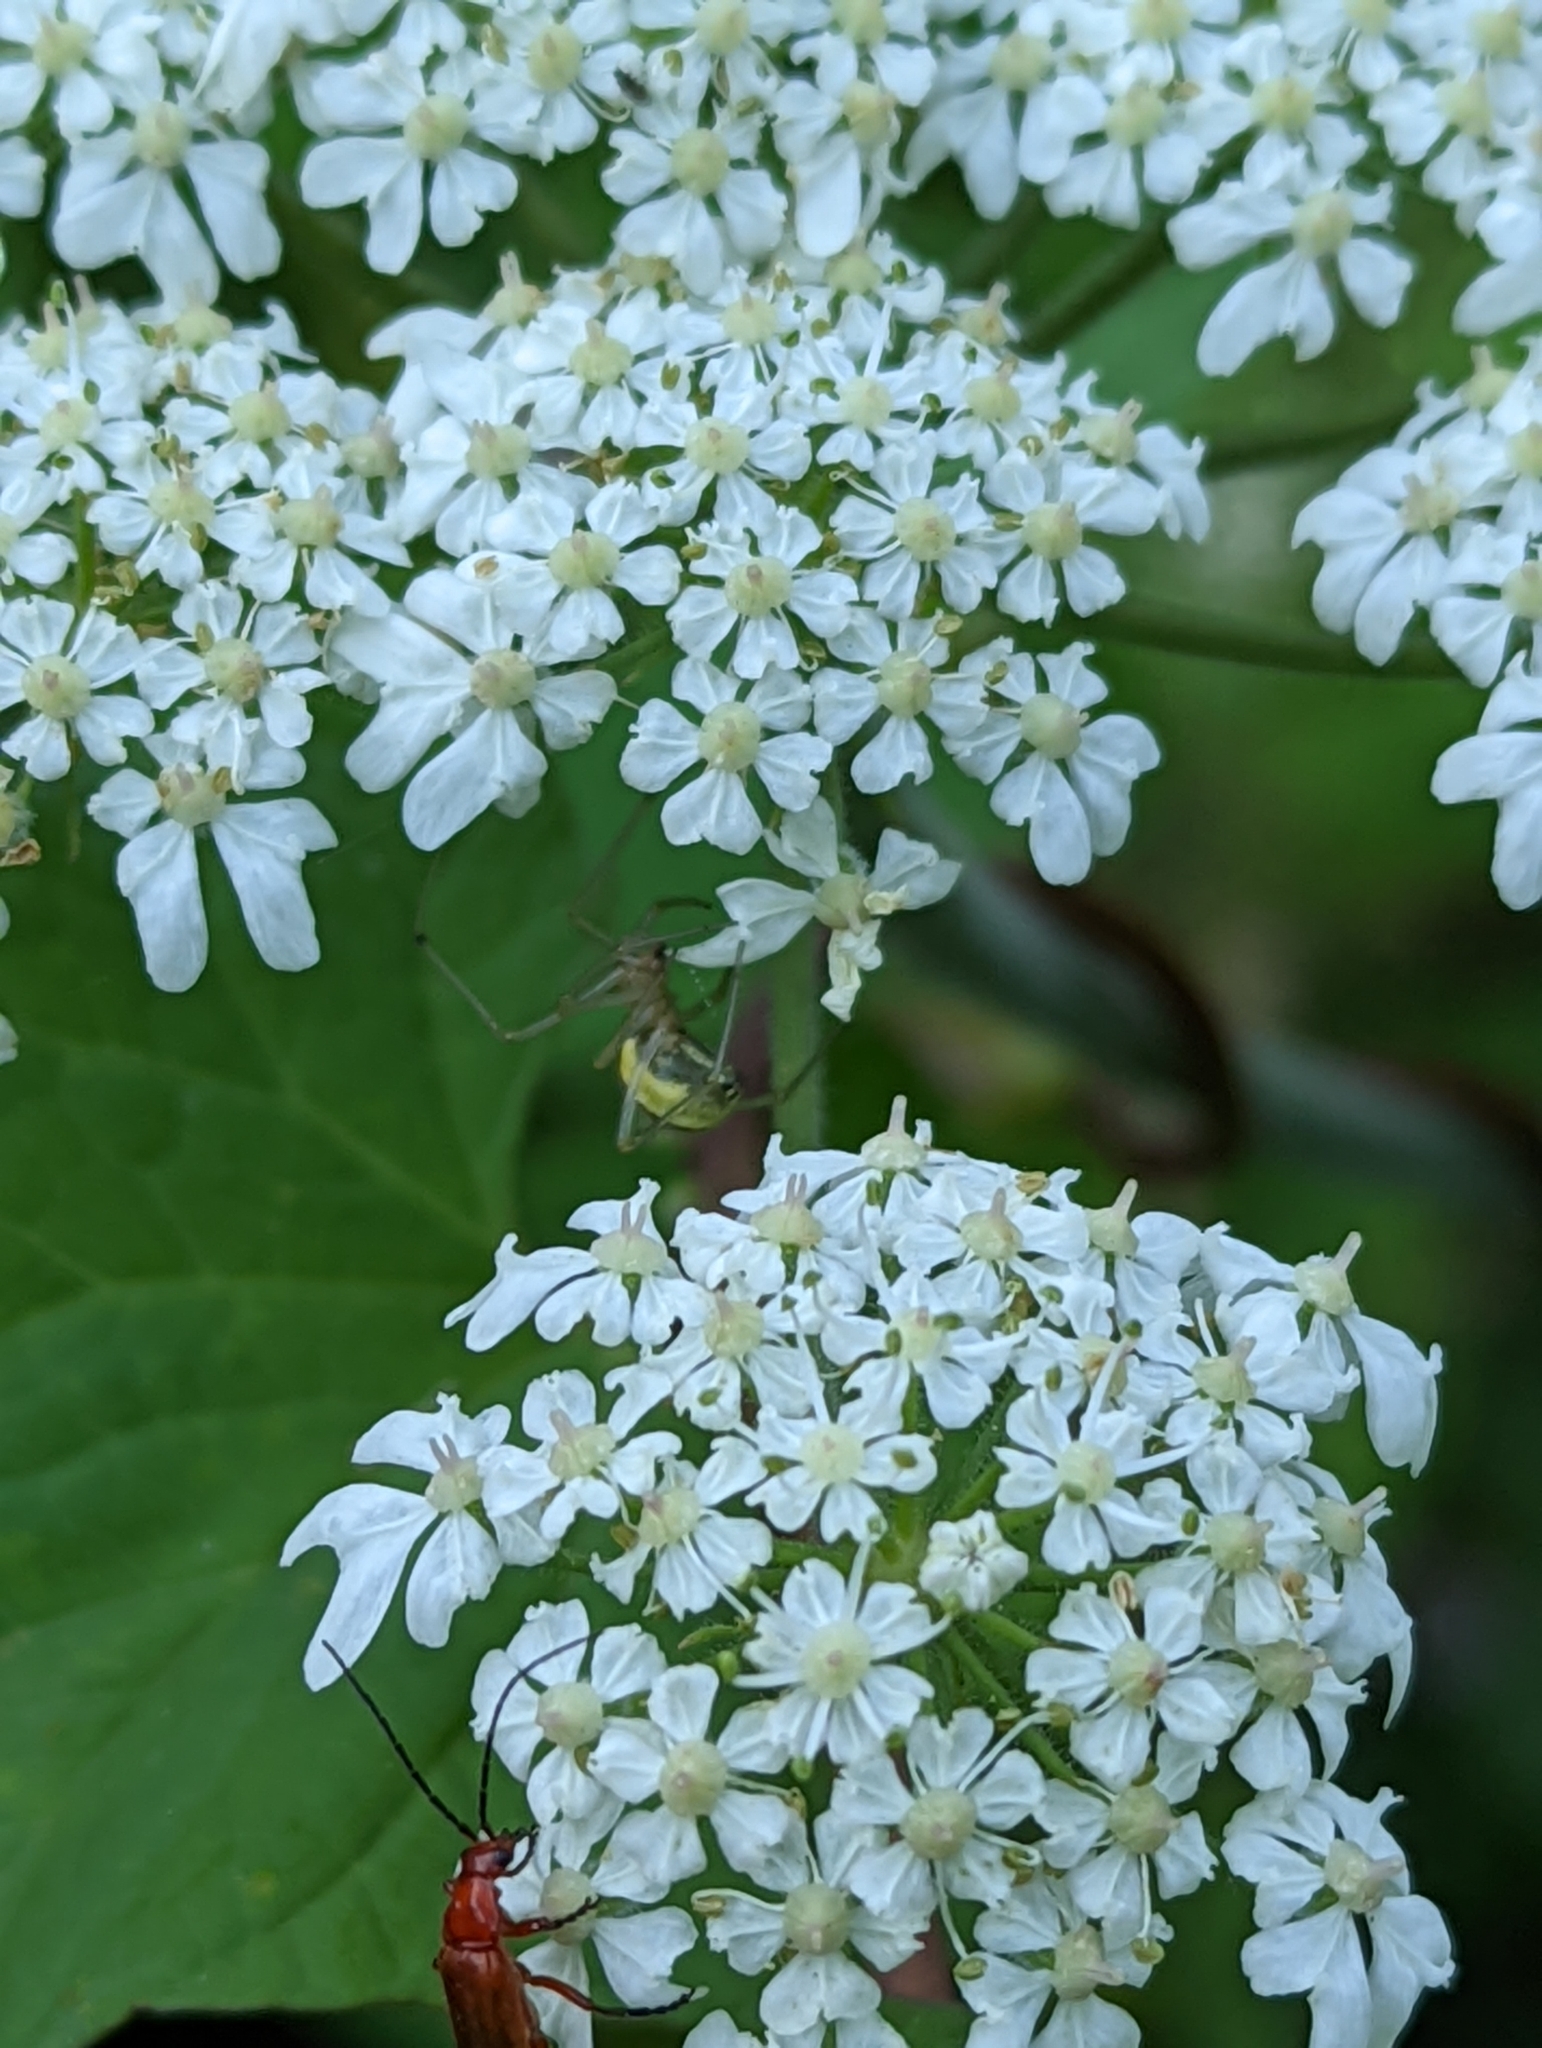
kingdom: Animalia
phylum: Arthropoda
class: Arachnida
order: Araneae
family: Theridiidae
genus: Enoplognatha
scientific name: Enoplognatha ovata
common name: Common candy-striped spider
